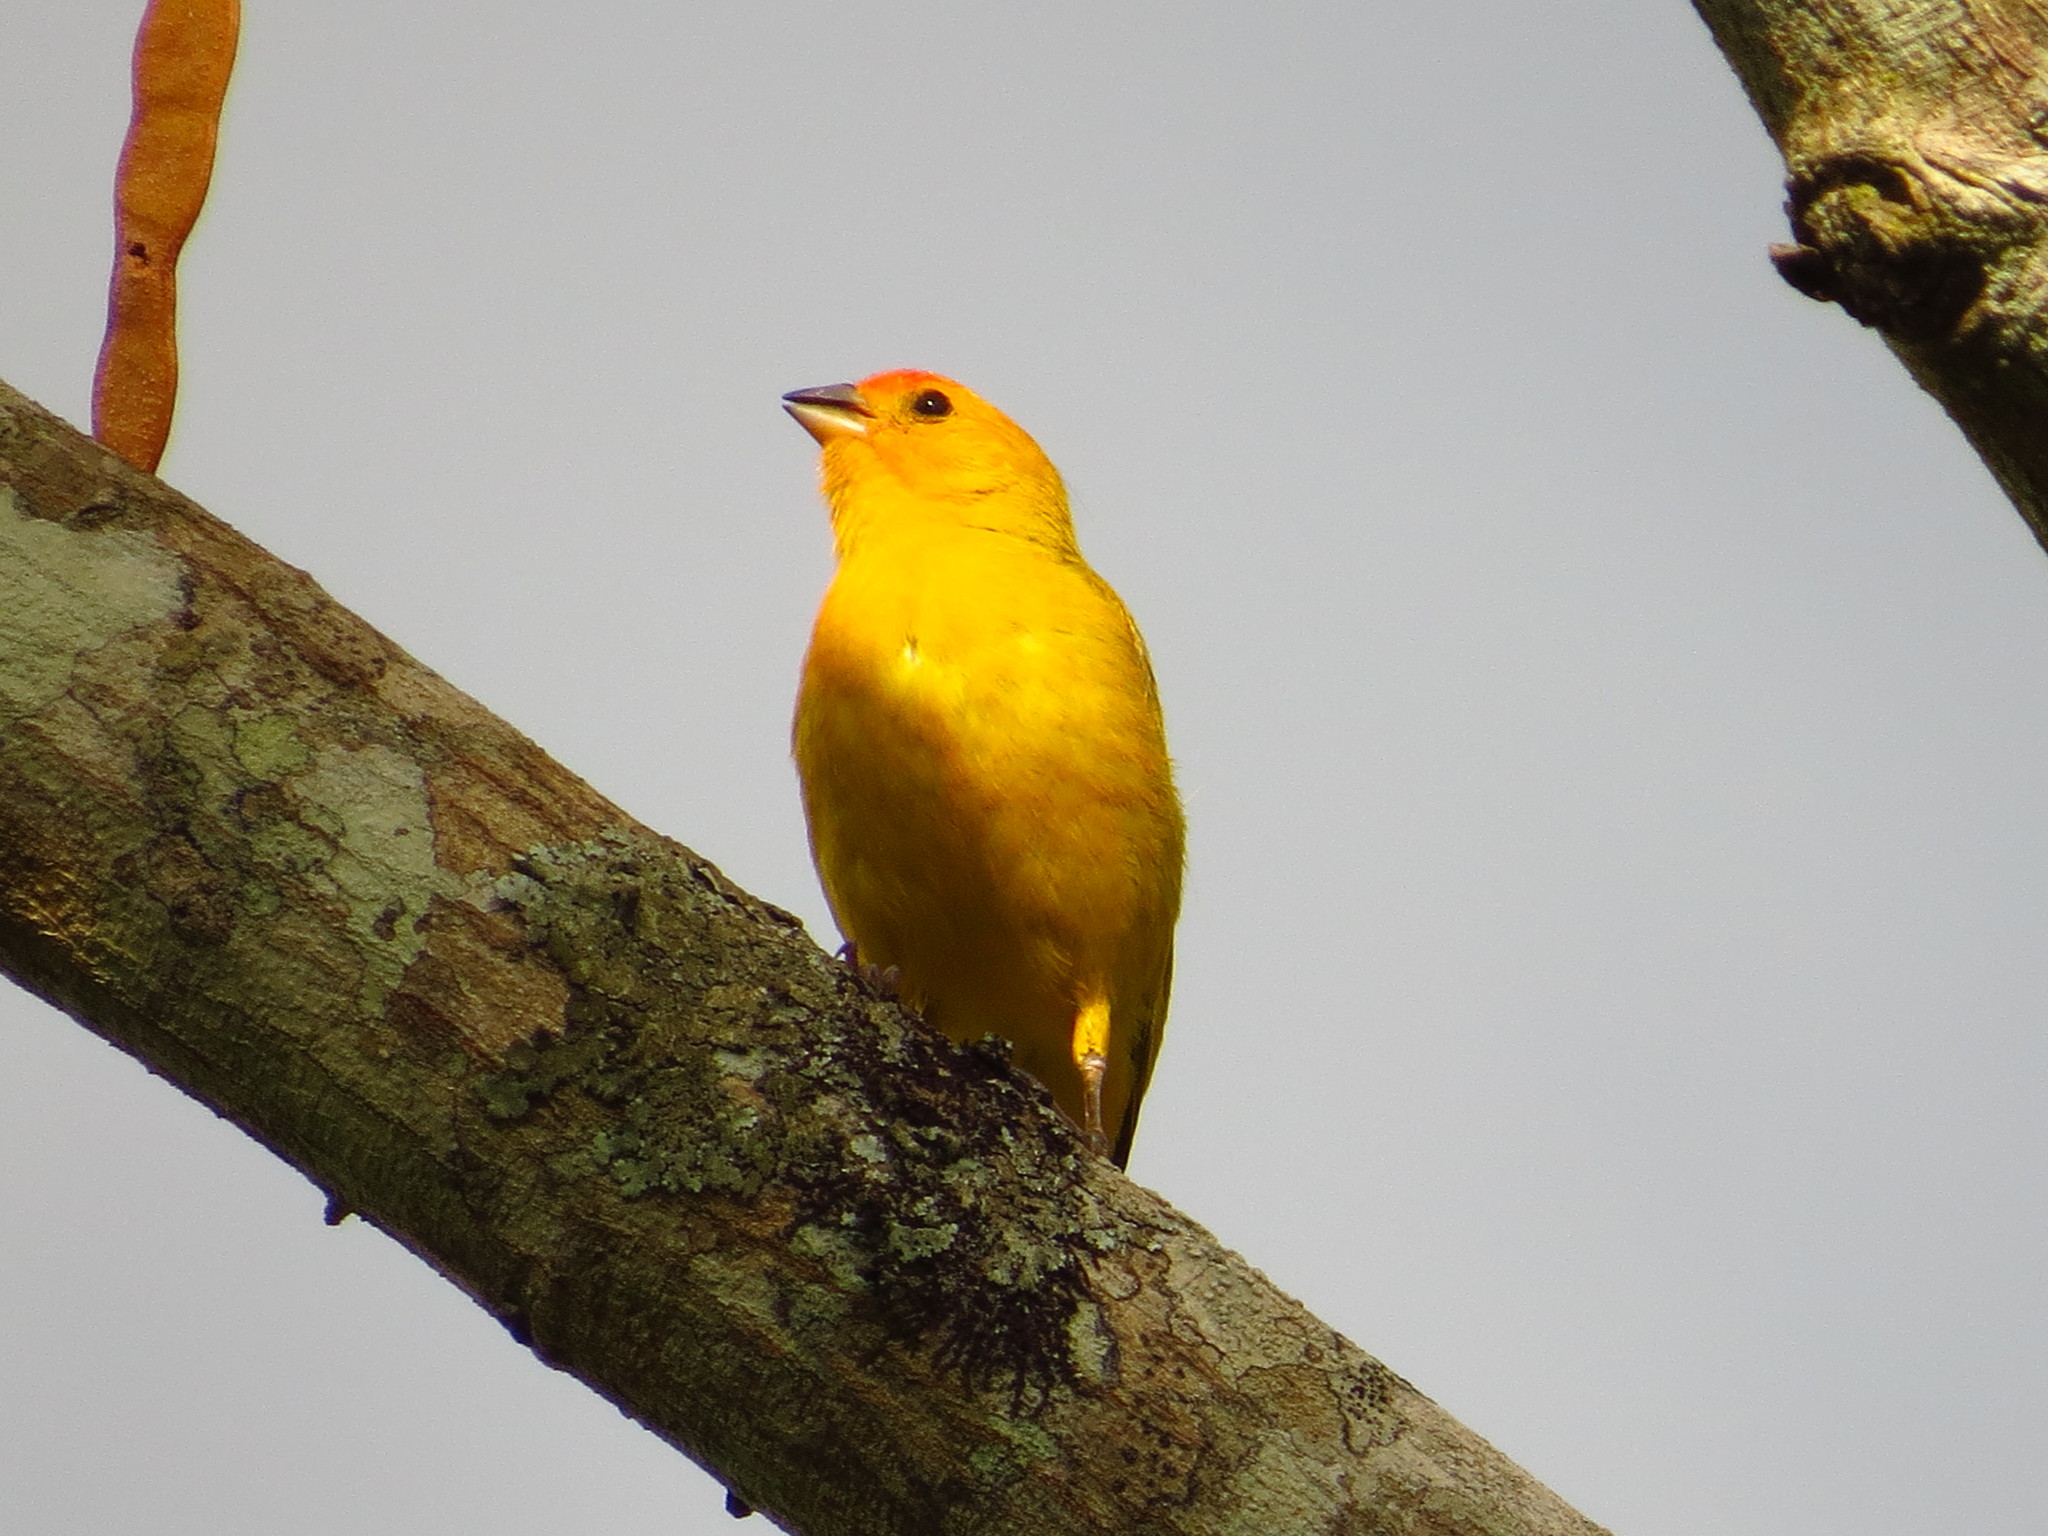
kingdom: Animalia
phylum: Chordata
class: Aves
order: Passeriformes
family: Thraupidae
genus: Sicalis
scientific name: Sicalis flaveola
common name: Saffron finch
